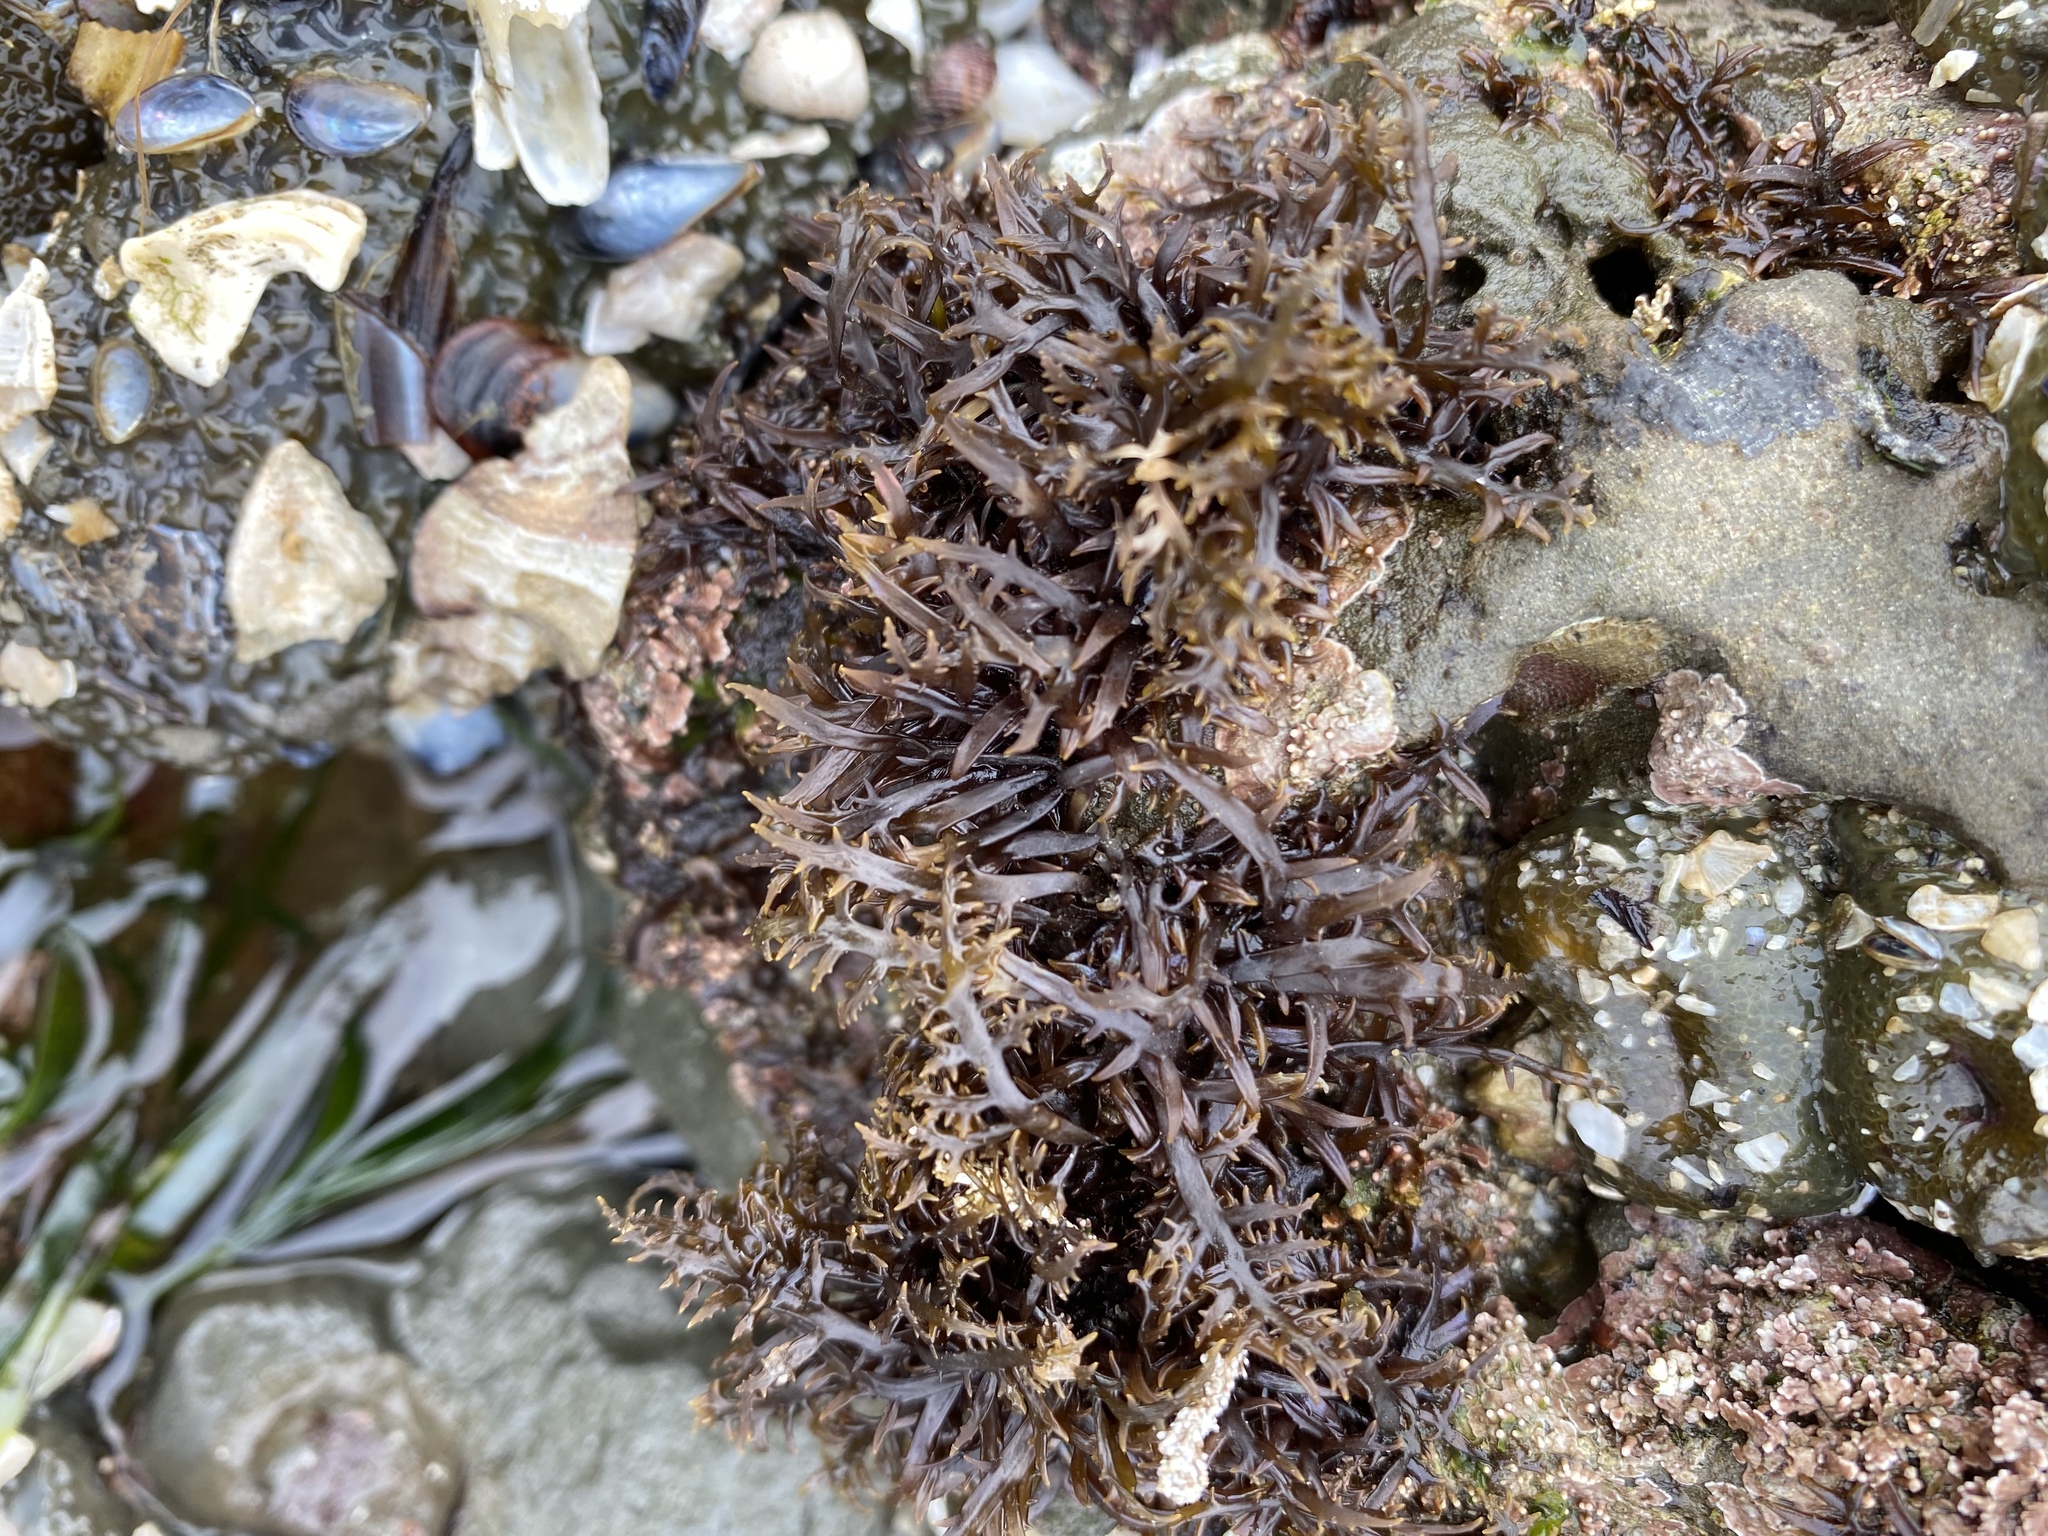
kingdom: Plantae
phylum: Rhodophyta
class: Florideophyceae
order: Gigartinales
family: Gigartinaceae
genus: Chondracanthus
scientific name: Chondracanthus canaliculatus
